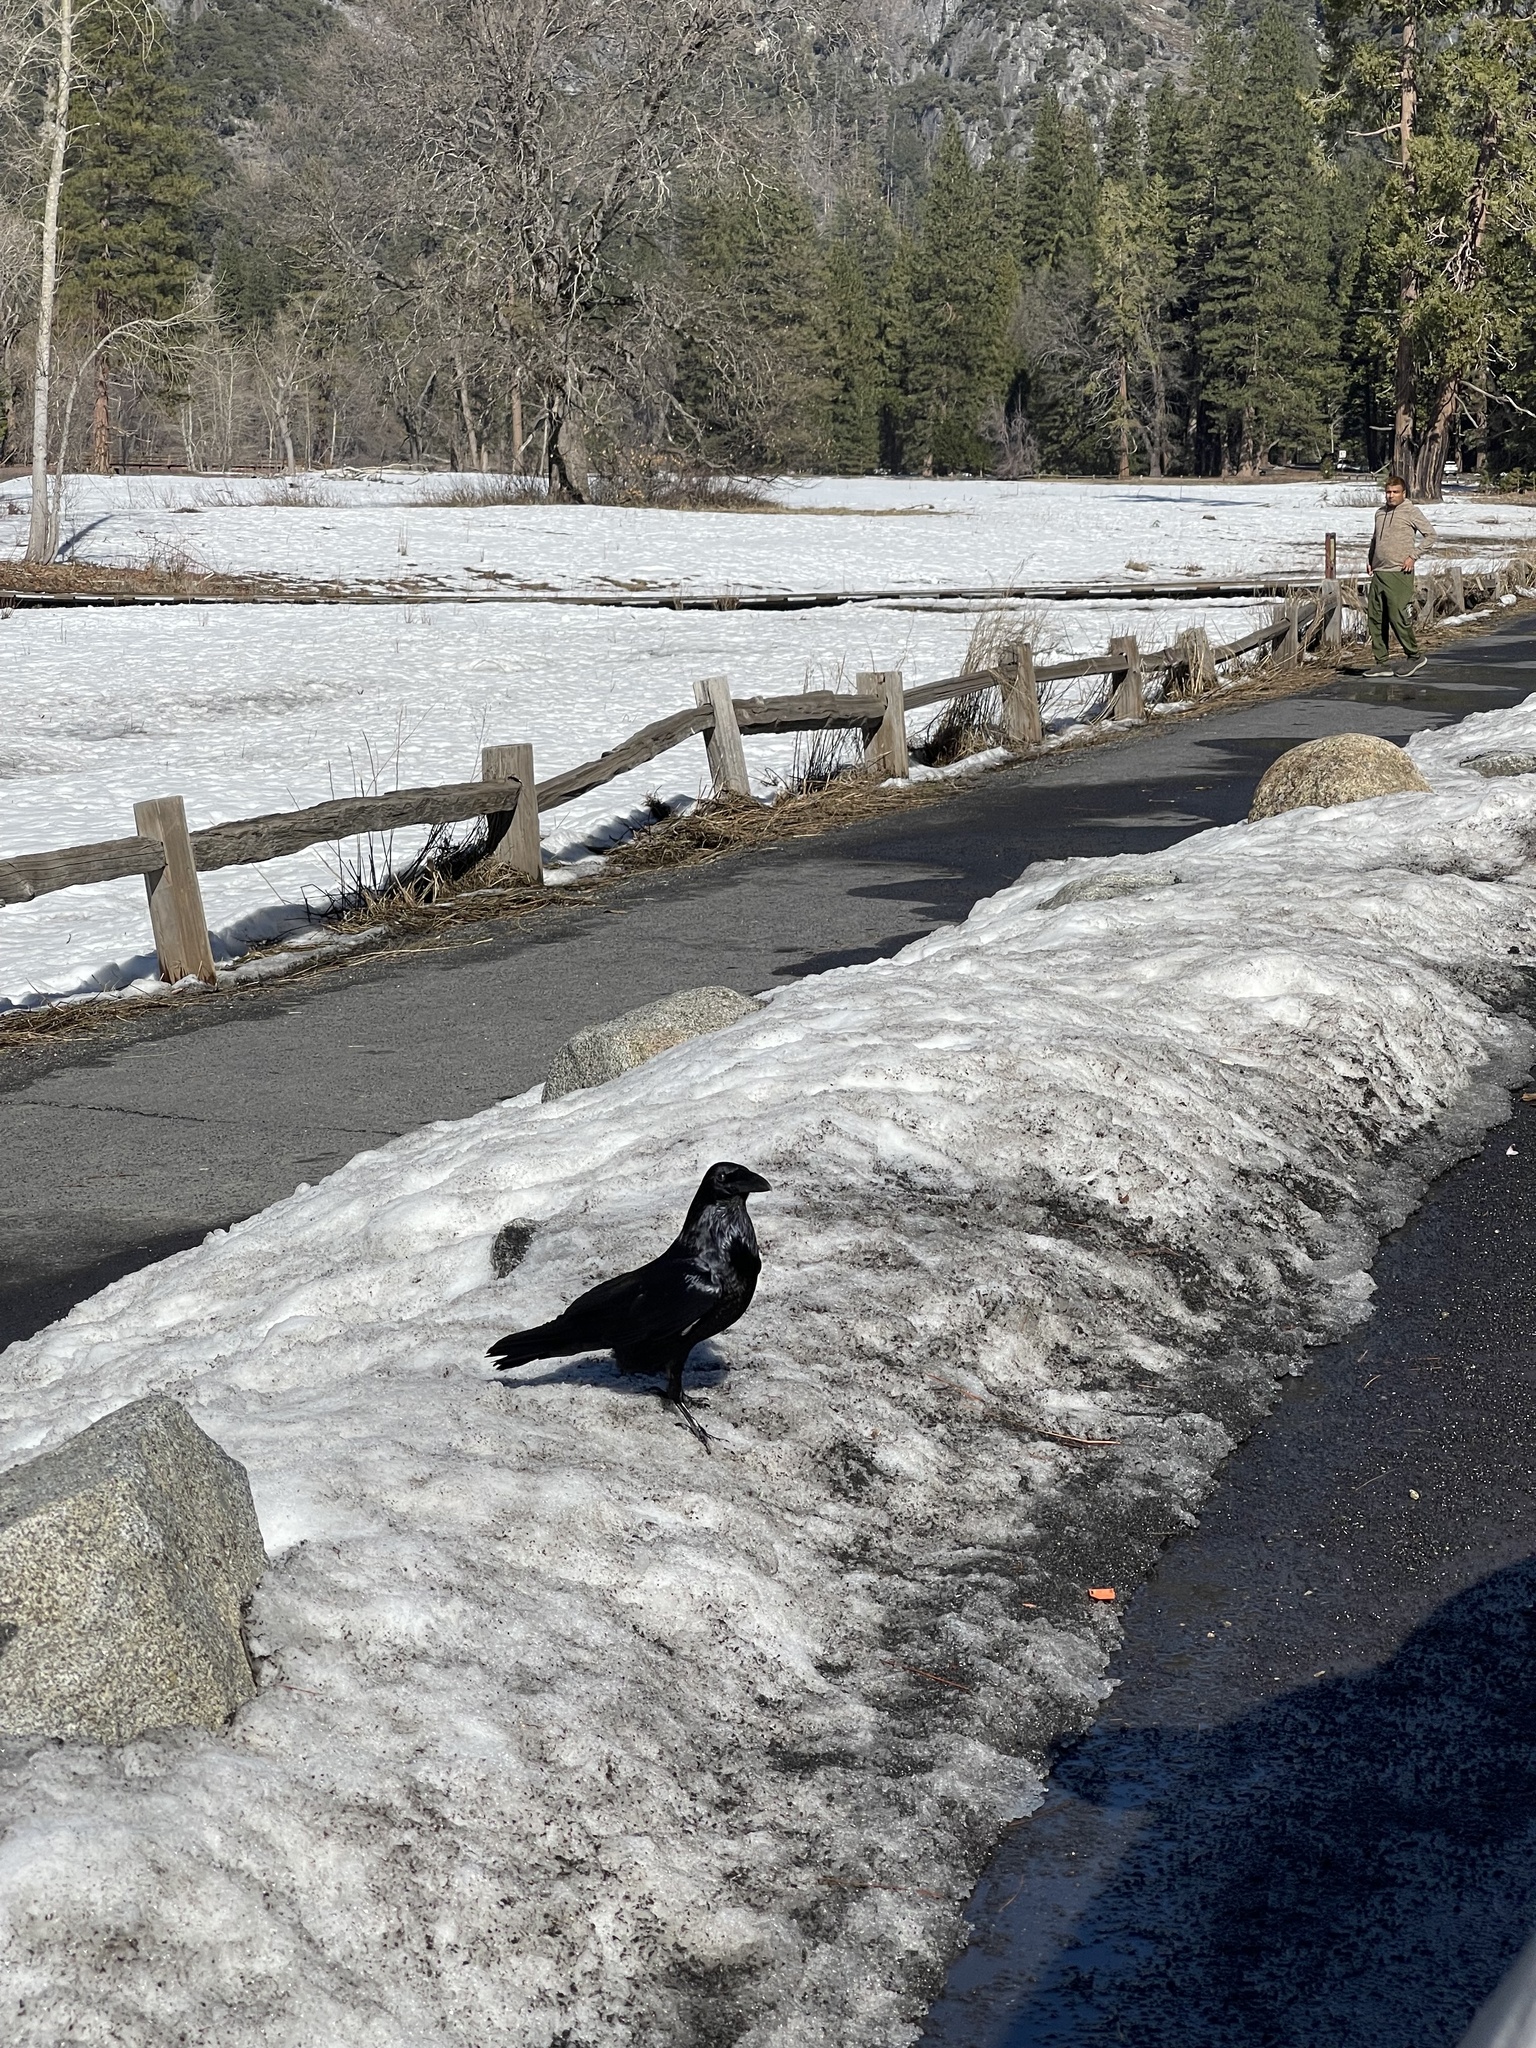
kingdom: Animalia
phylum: Chordata
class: Aves
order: Passeriformes
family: Corvidae
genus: Corvus
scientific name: Corvus corax
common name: Common raven
